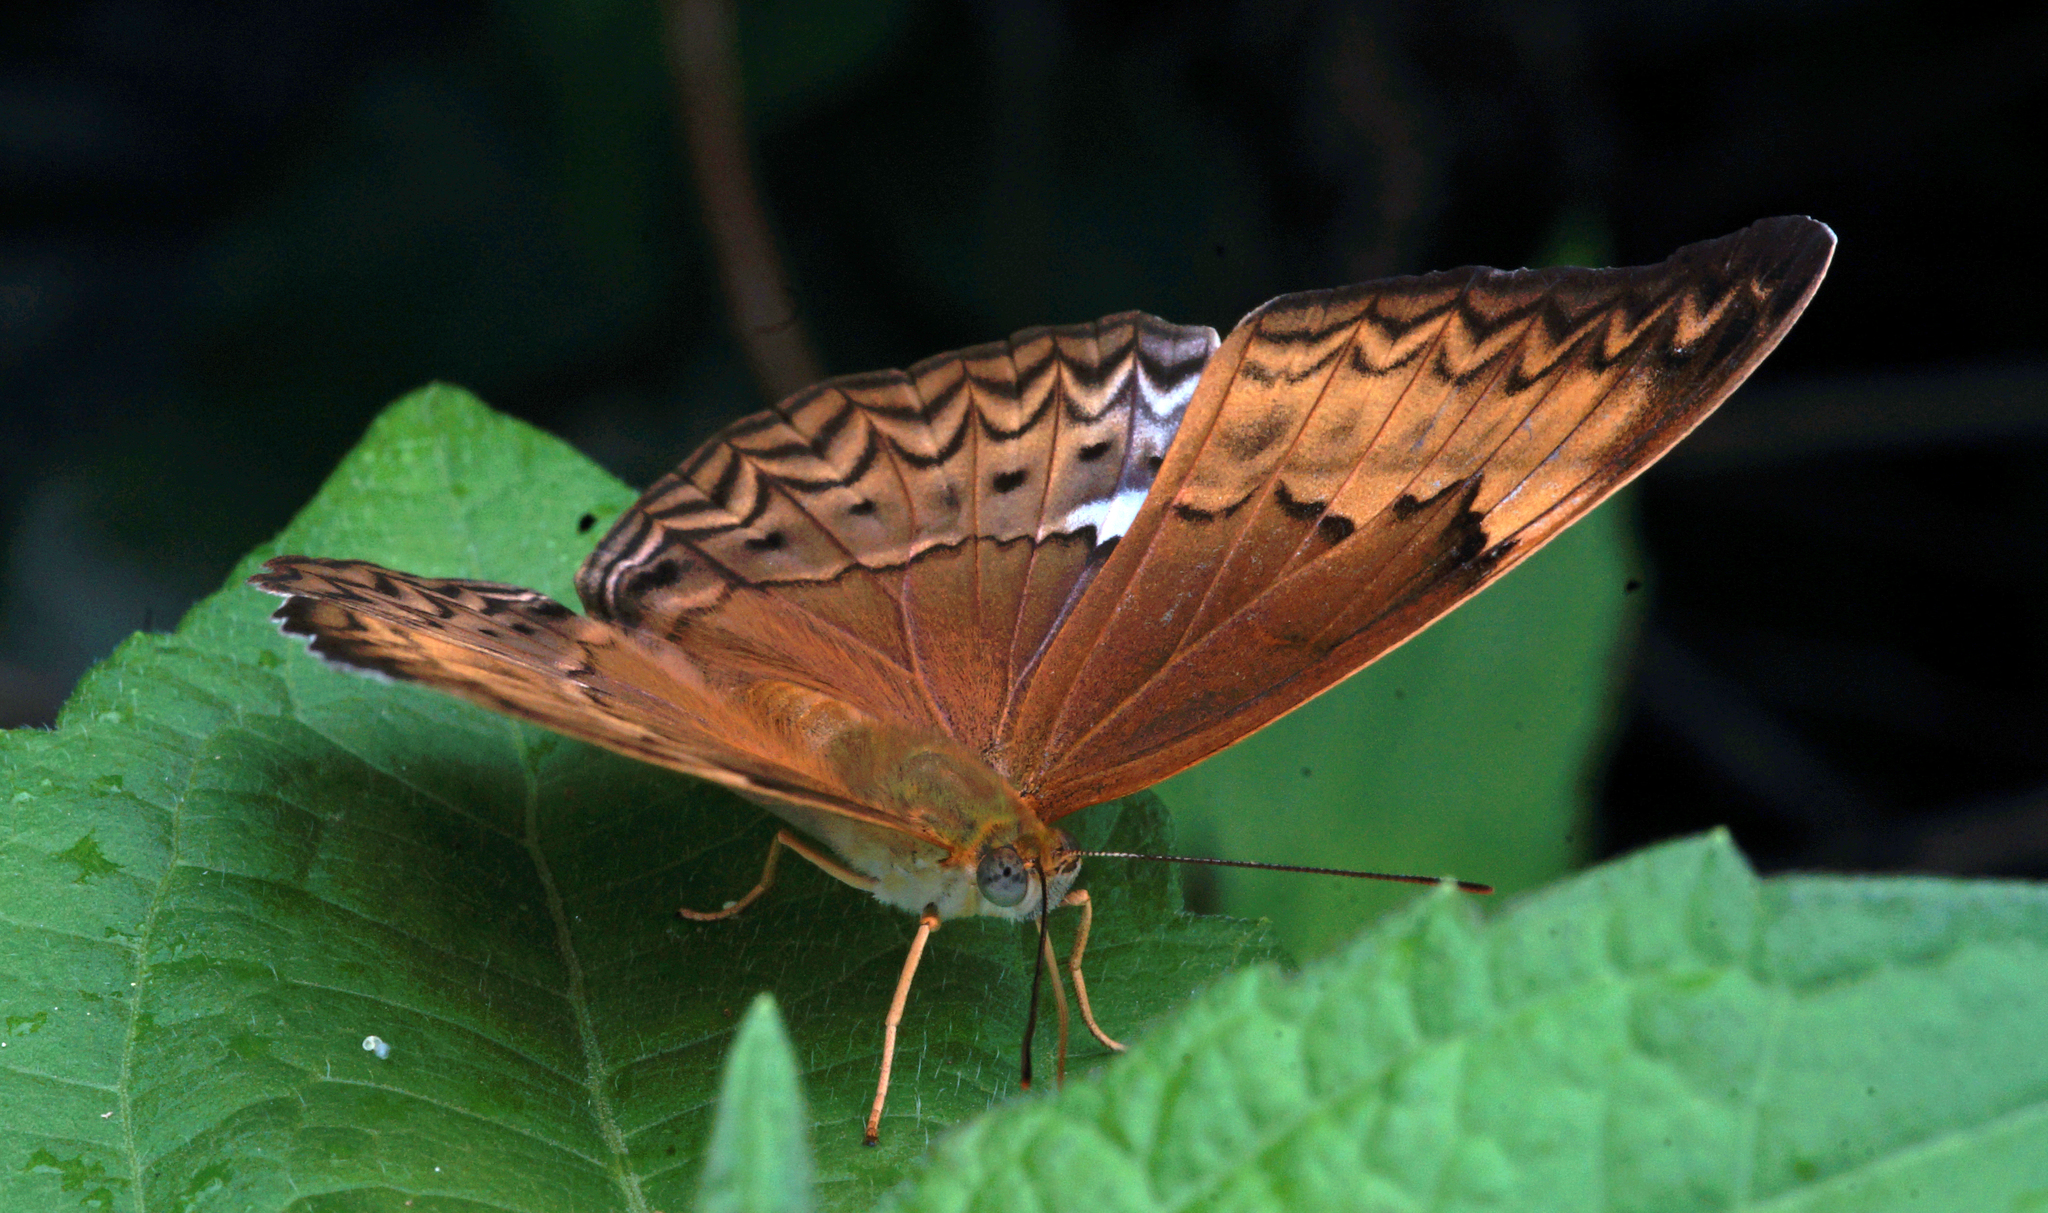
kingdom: Animalia
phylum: Arthropoda
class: Insecta
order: Lepidoptera
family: Nymphalidae
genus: Cirrochroa
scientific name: Cirrochroa tyche
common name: Common yeoman
